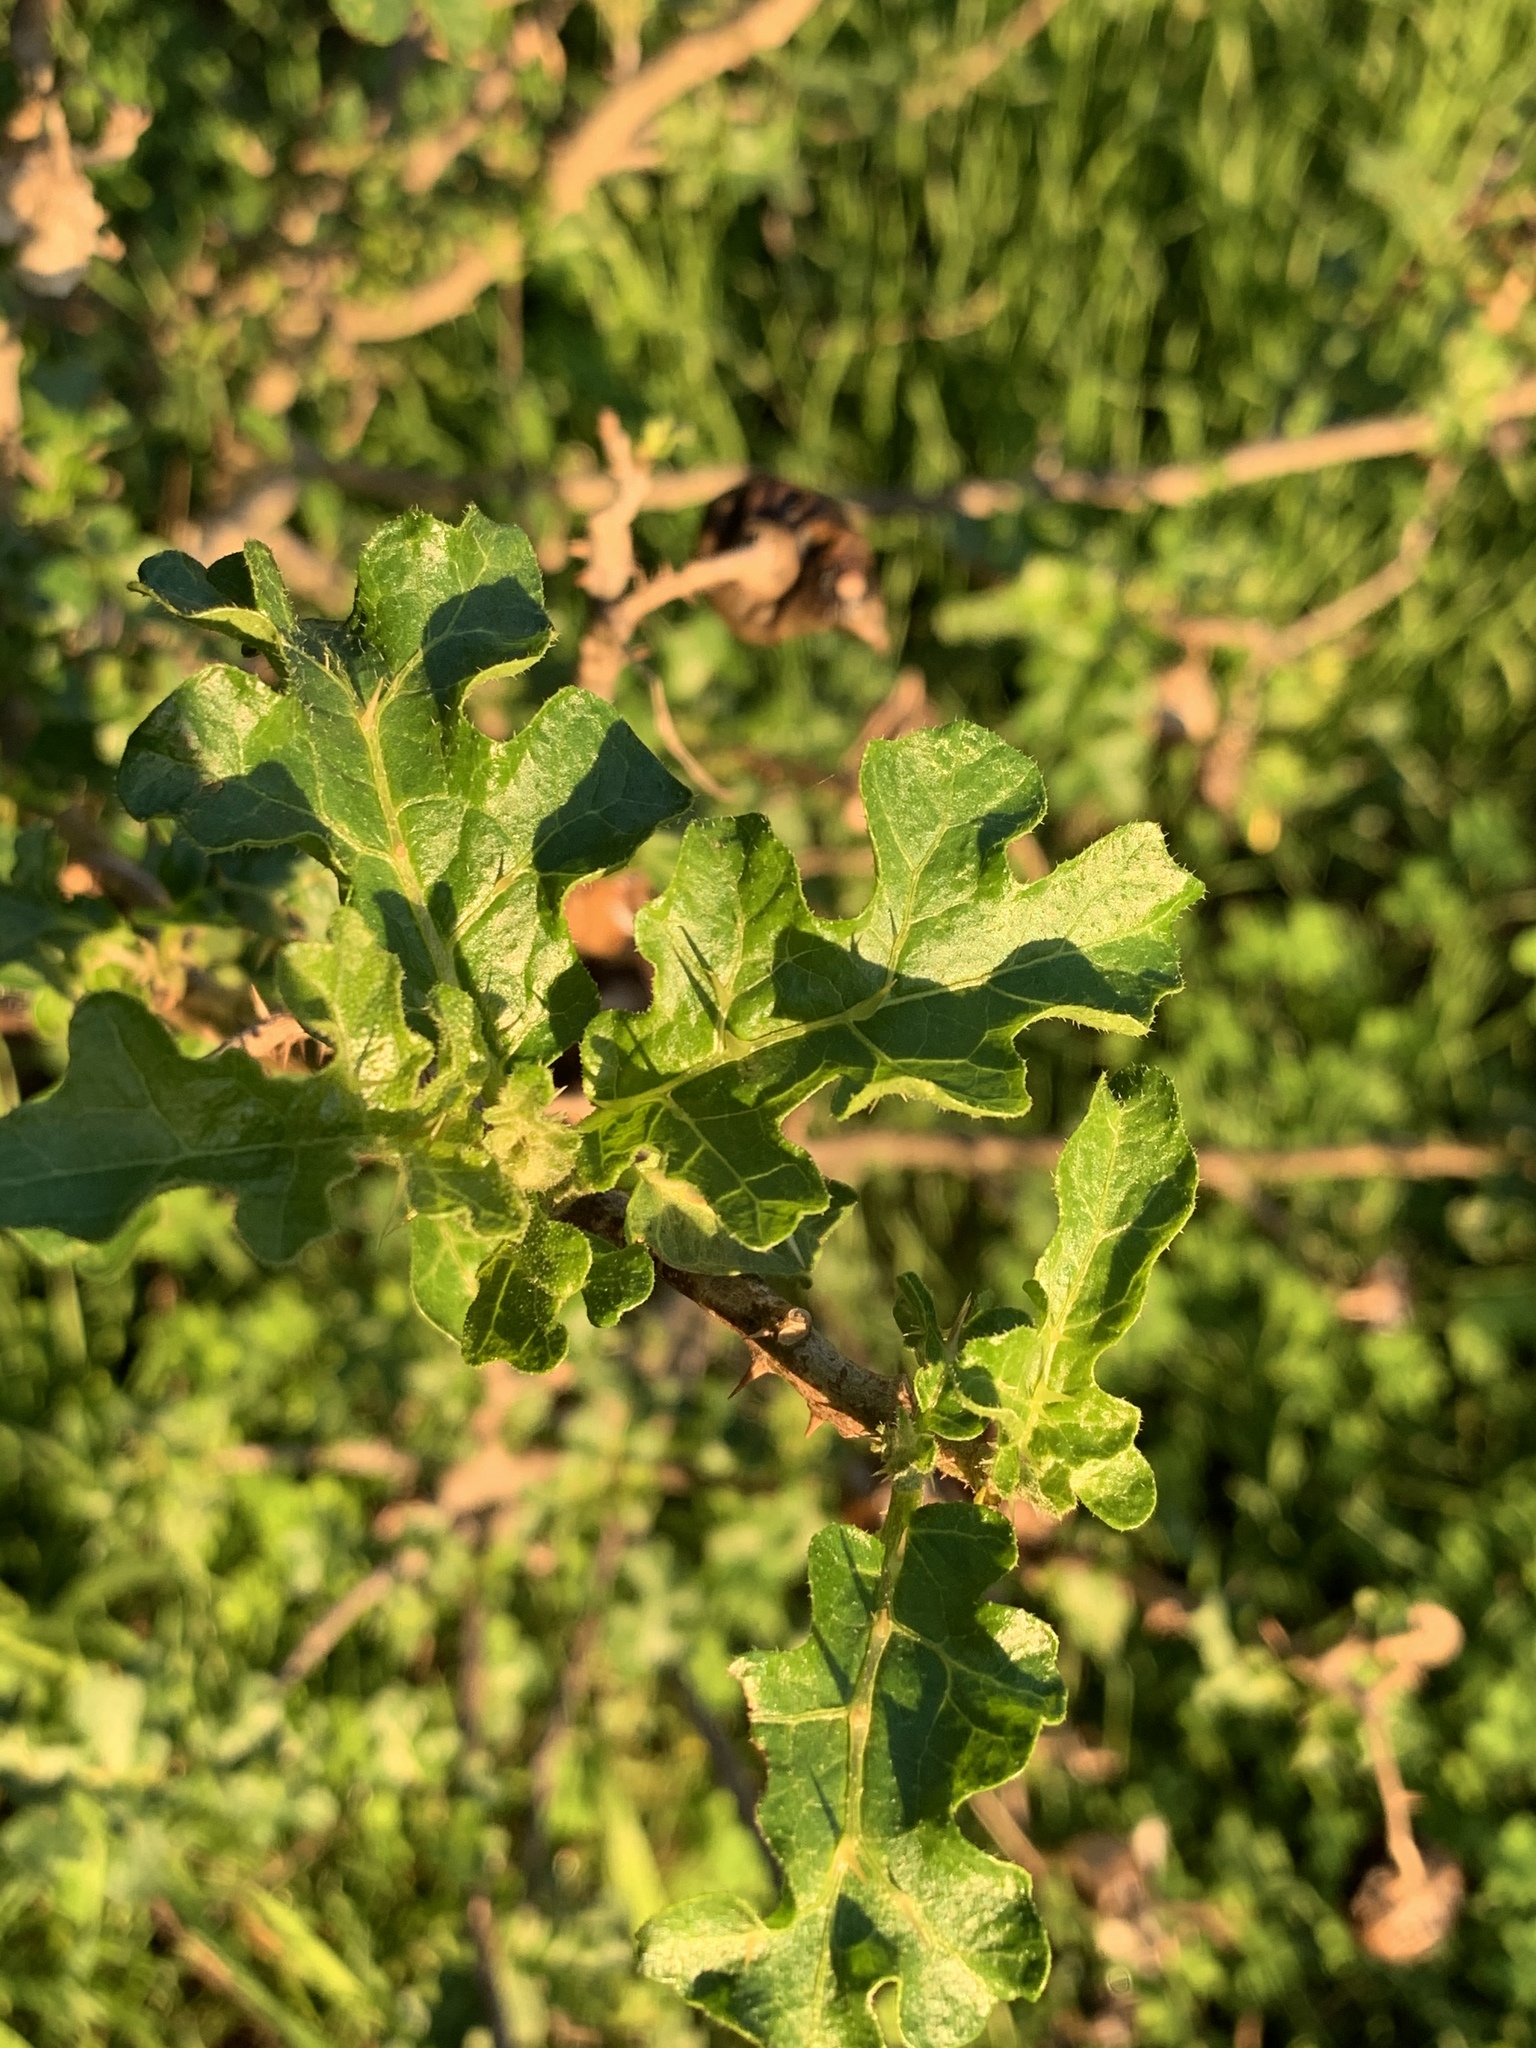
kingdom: Plantae
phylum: Tracheophyta
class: Magnoliopsida
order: Solanales
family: Solanaceae
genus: Solanum
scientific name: Solanum linnaeanum
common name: Nightshade
